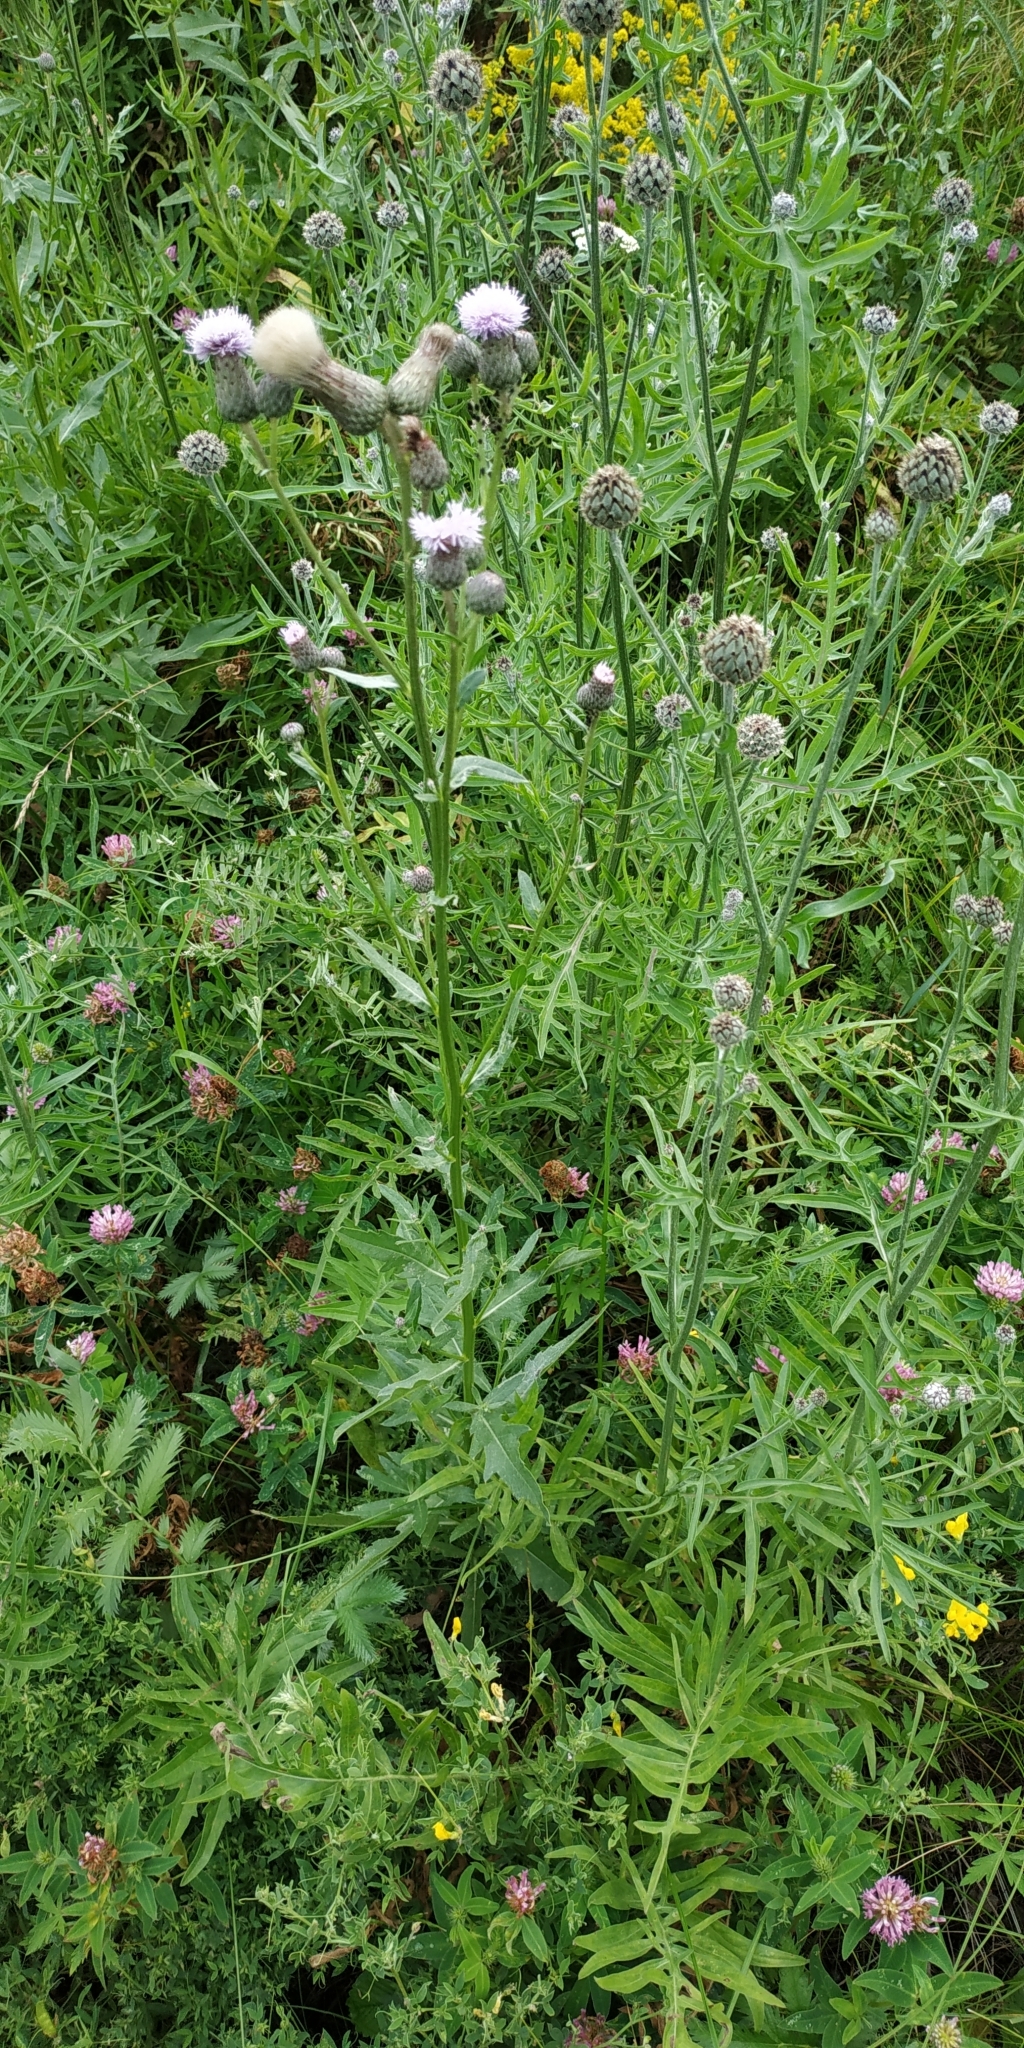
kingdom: Plantae
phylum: Tracheophyta
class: Magnoliopsida
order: Asterales
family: Asteraceae
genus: Cirsium
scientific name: Cirsium arvense
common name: Creeping thistle
